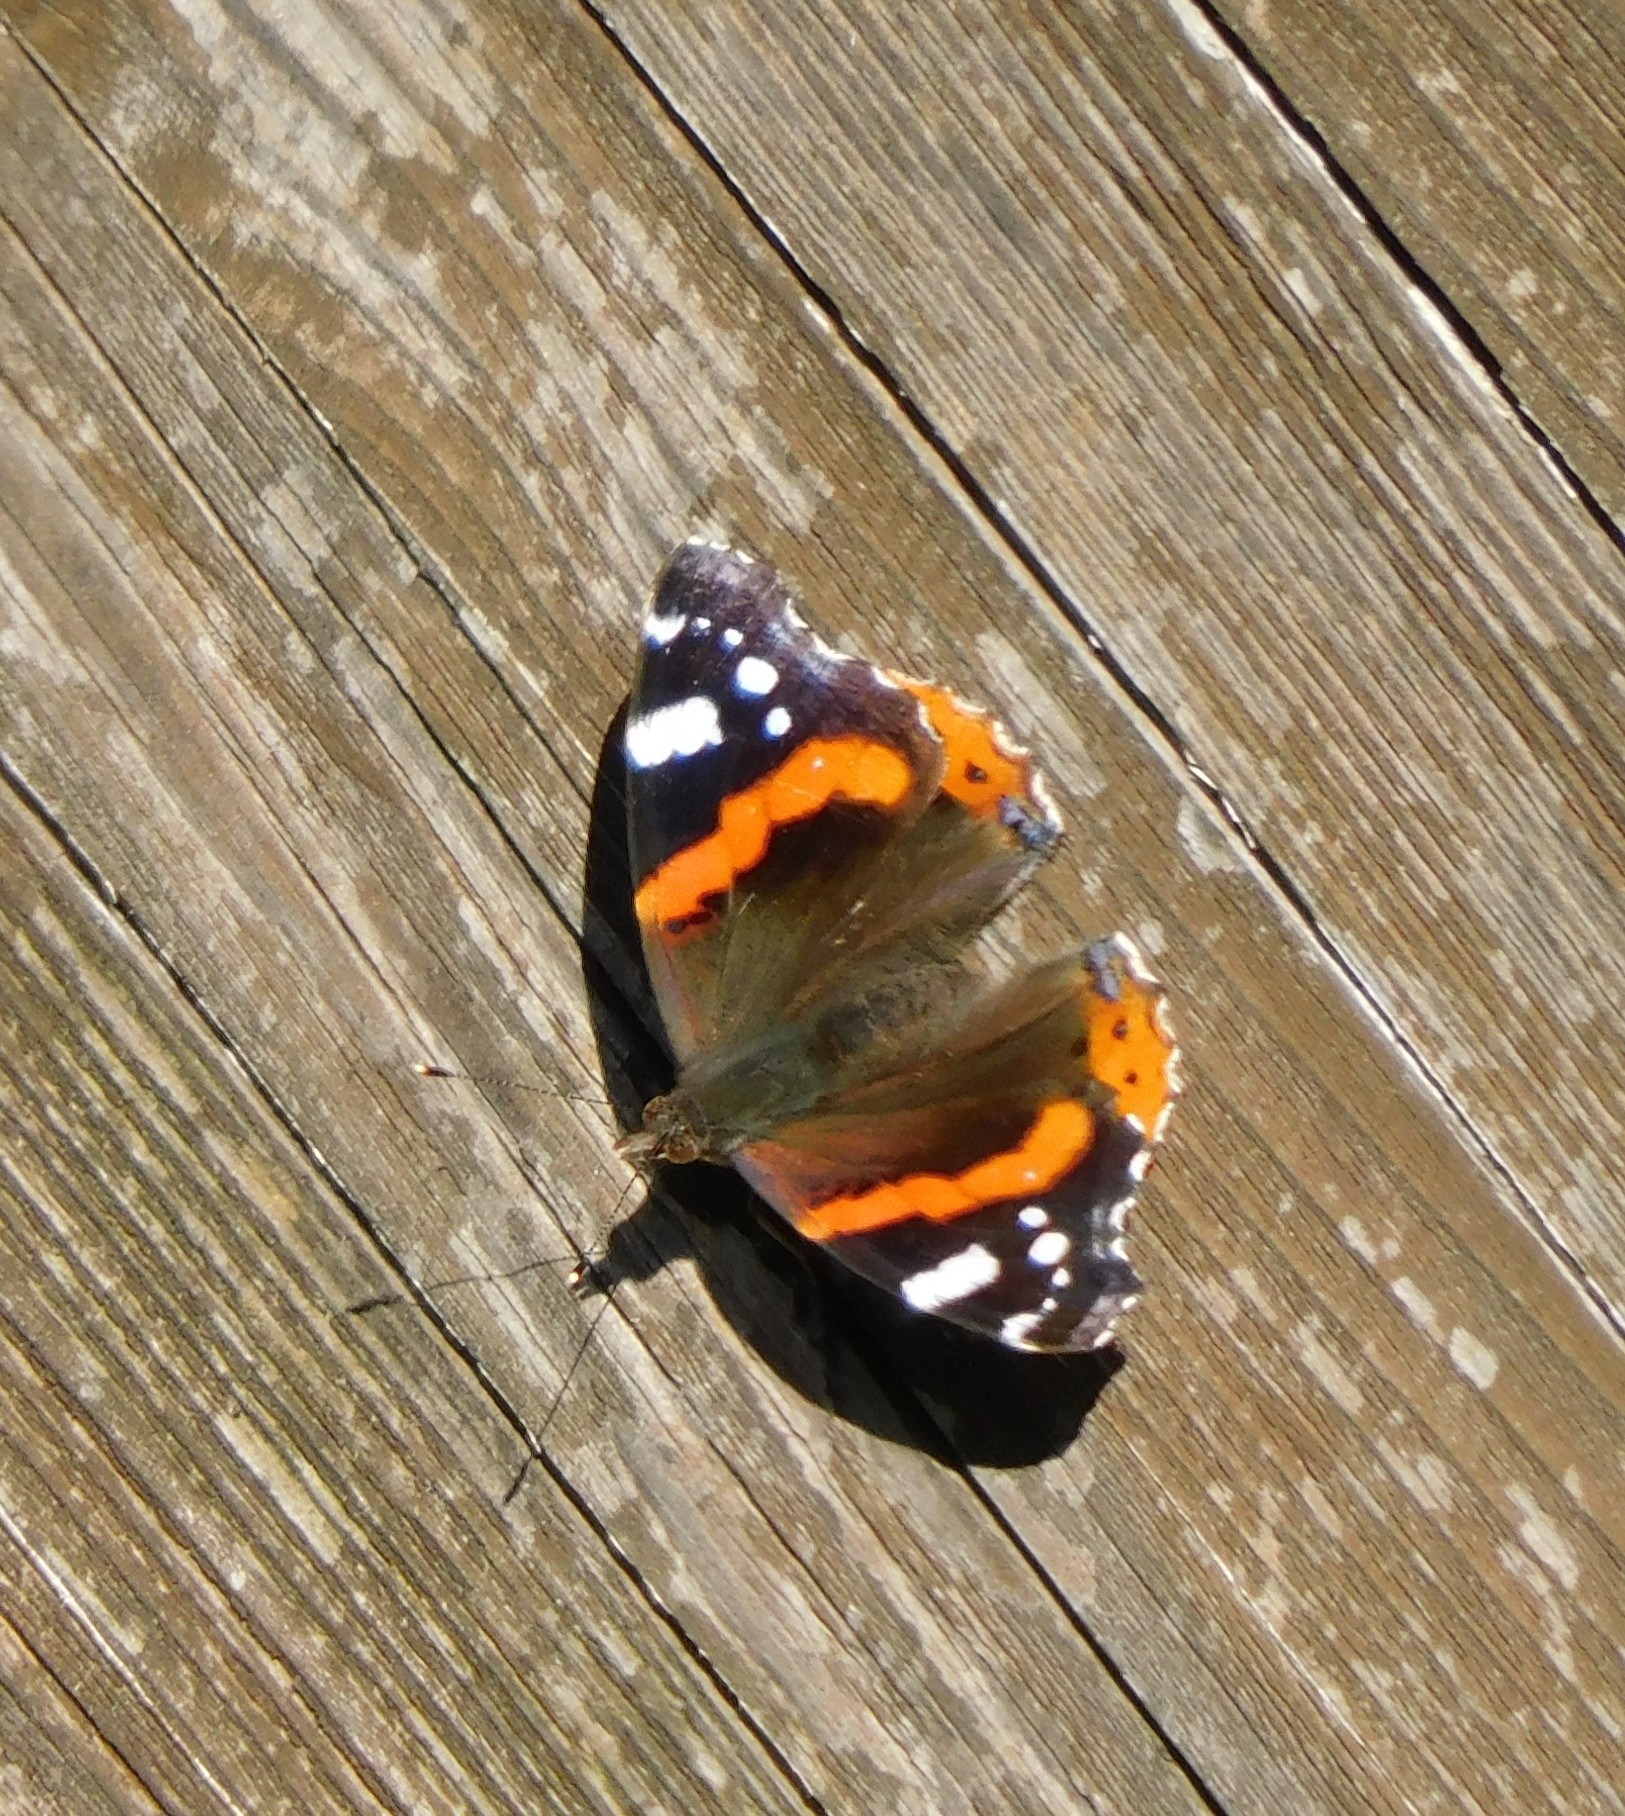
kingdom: Animalia
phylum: Arthropoda
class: Insecta
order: Lepidoptera
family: Nymphalidae
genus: Vanessa
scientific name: Vanessa atalanta
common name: Red admiral
